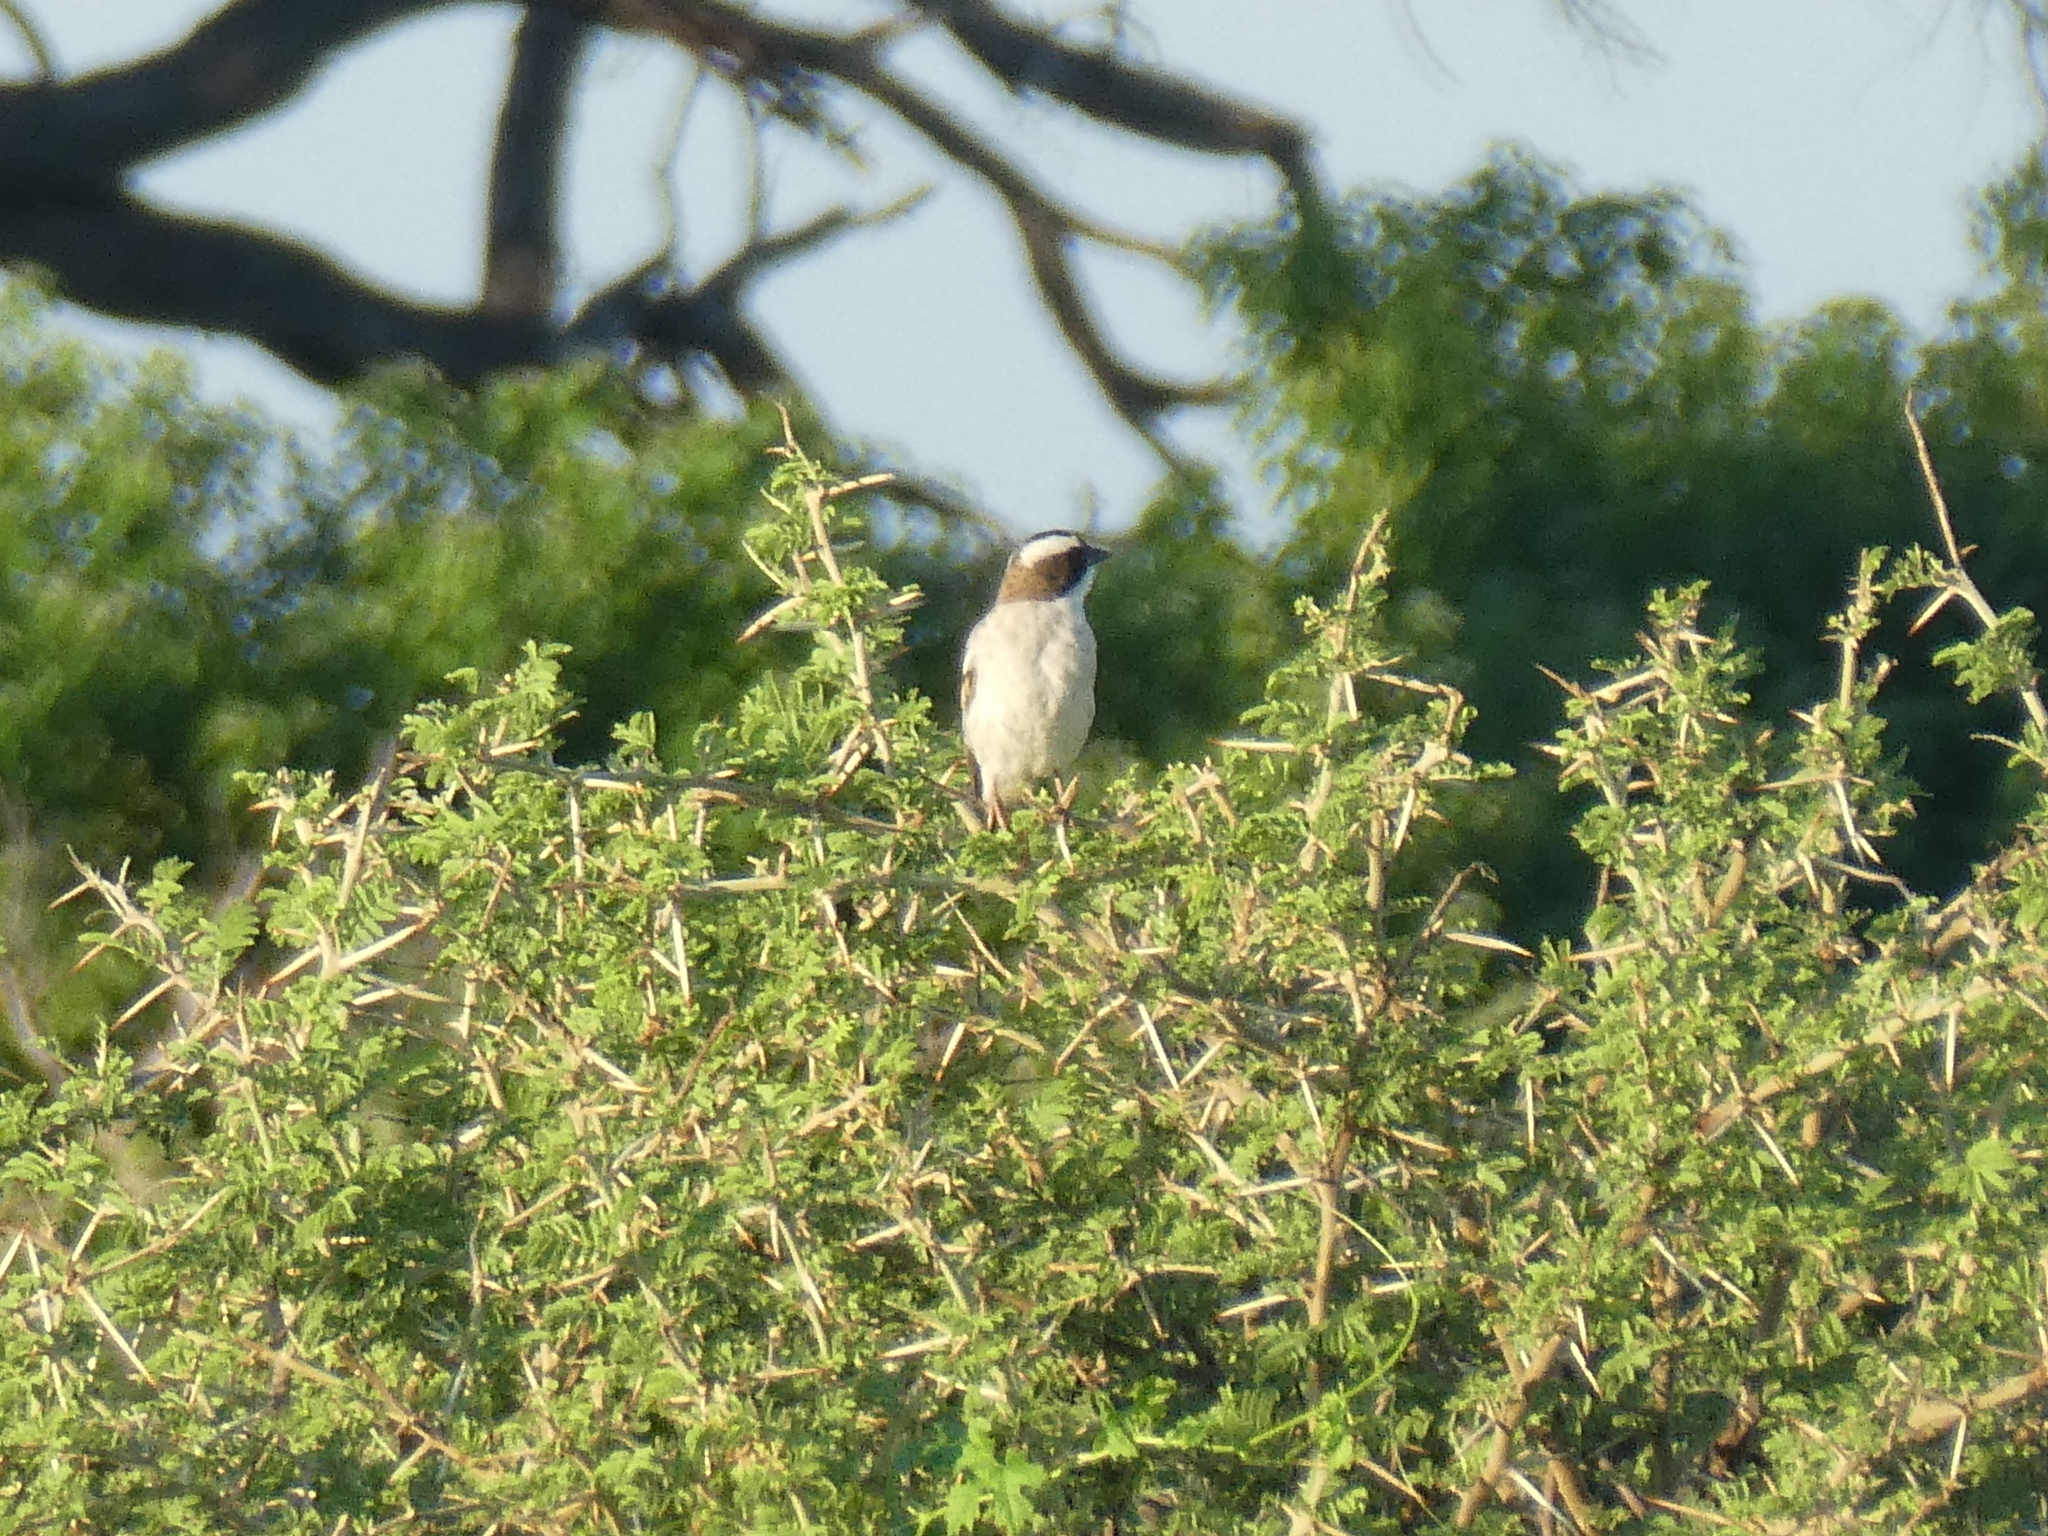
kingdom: Animalia
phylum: Chordata
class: Aves
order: Passeriformes
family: Passeridae
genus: Plocepasser
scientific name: Plocepasser mahali
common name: White-browed sparrow-weaver
